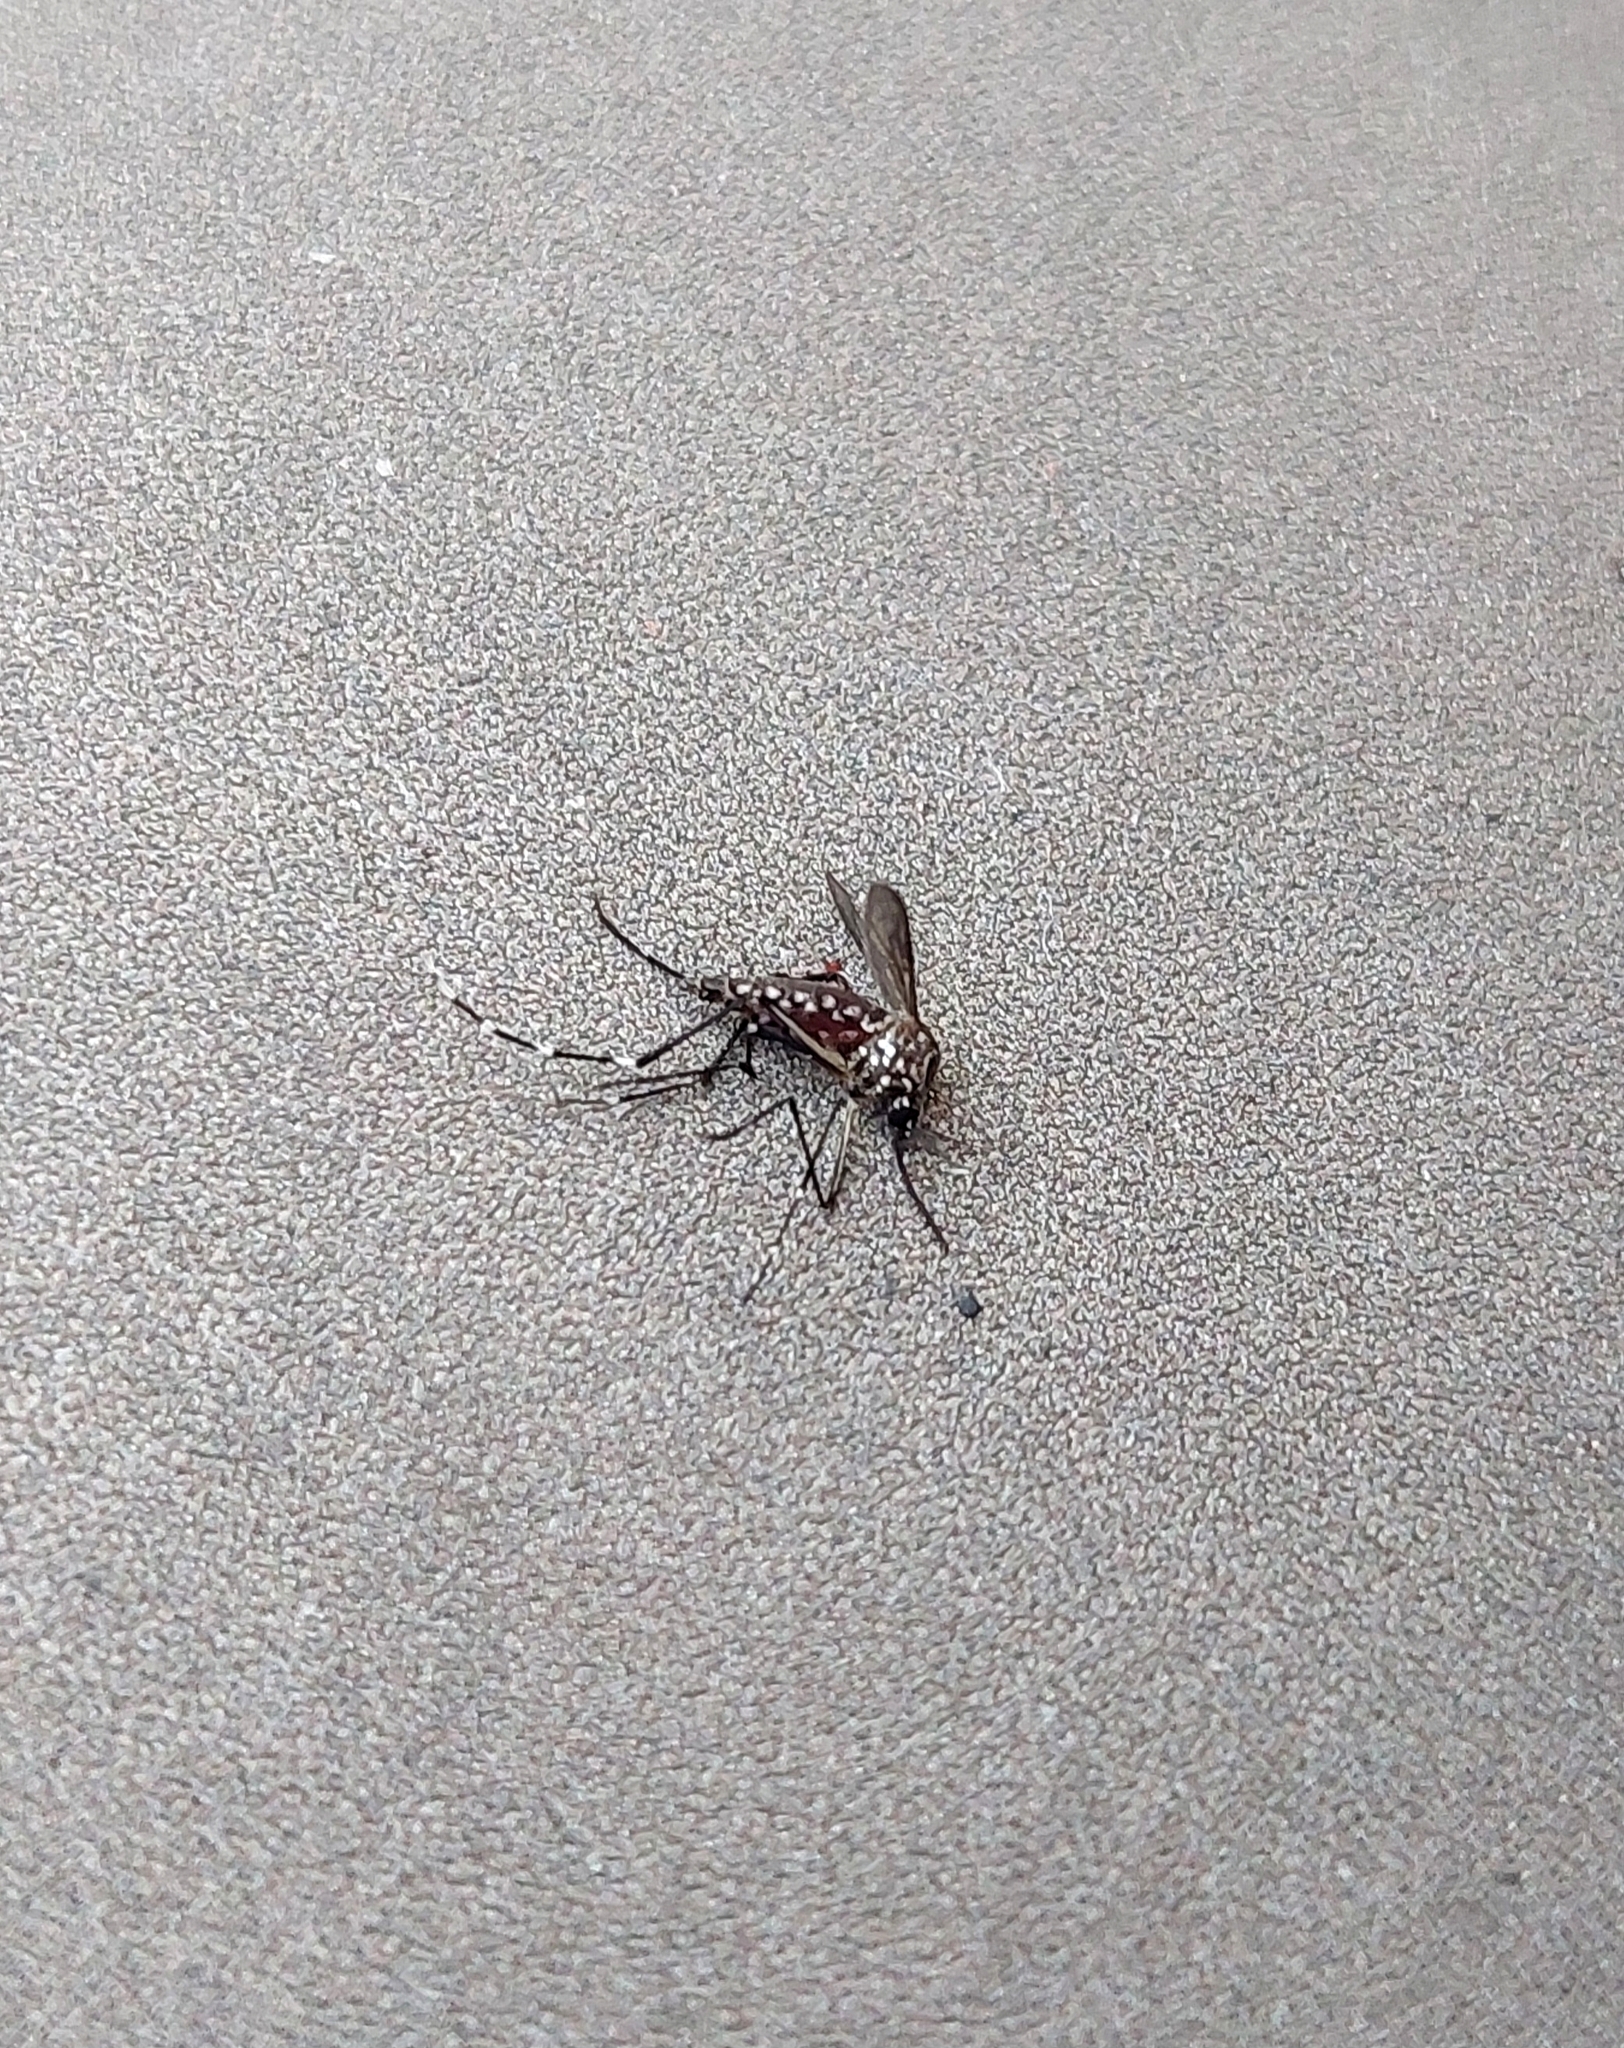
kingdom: Animalia
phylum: Arthropoda
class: Insecta
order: Diptera
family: Culicidae
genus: Aedes
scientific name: Aedes aegypti
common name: Yellow fever mosquito
